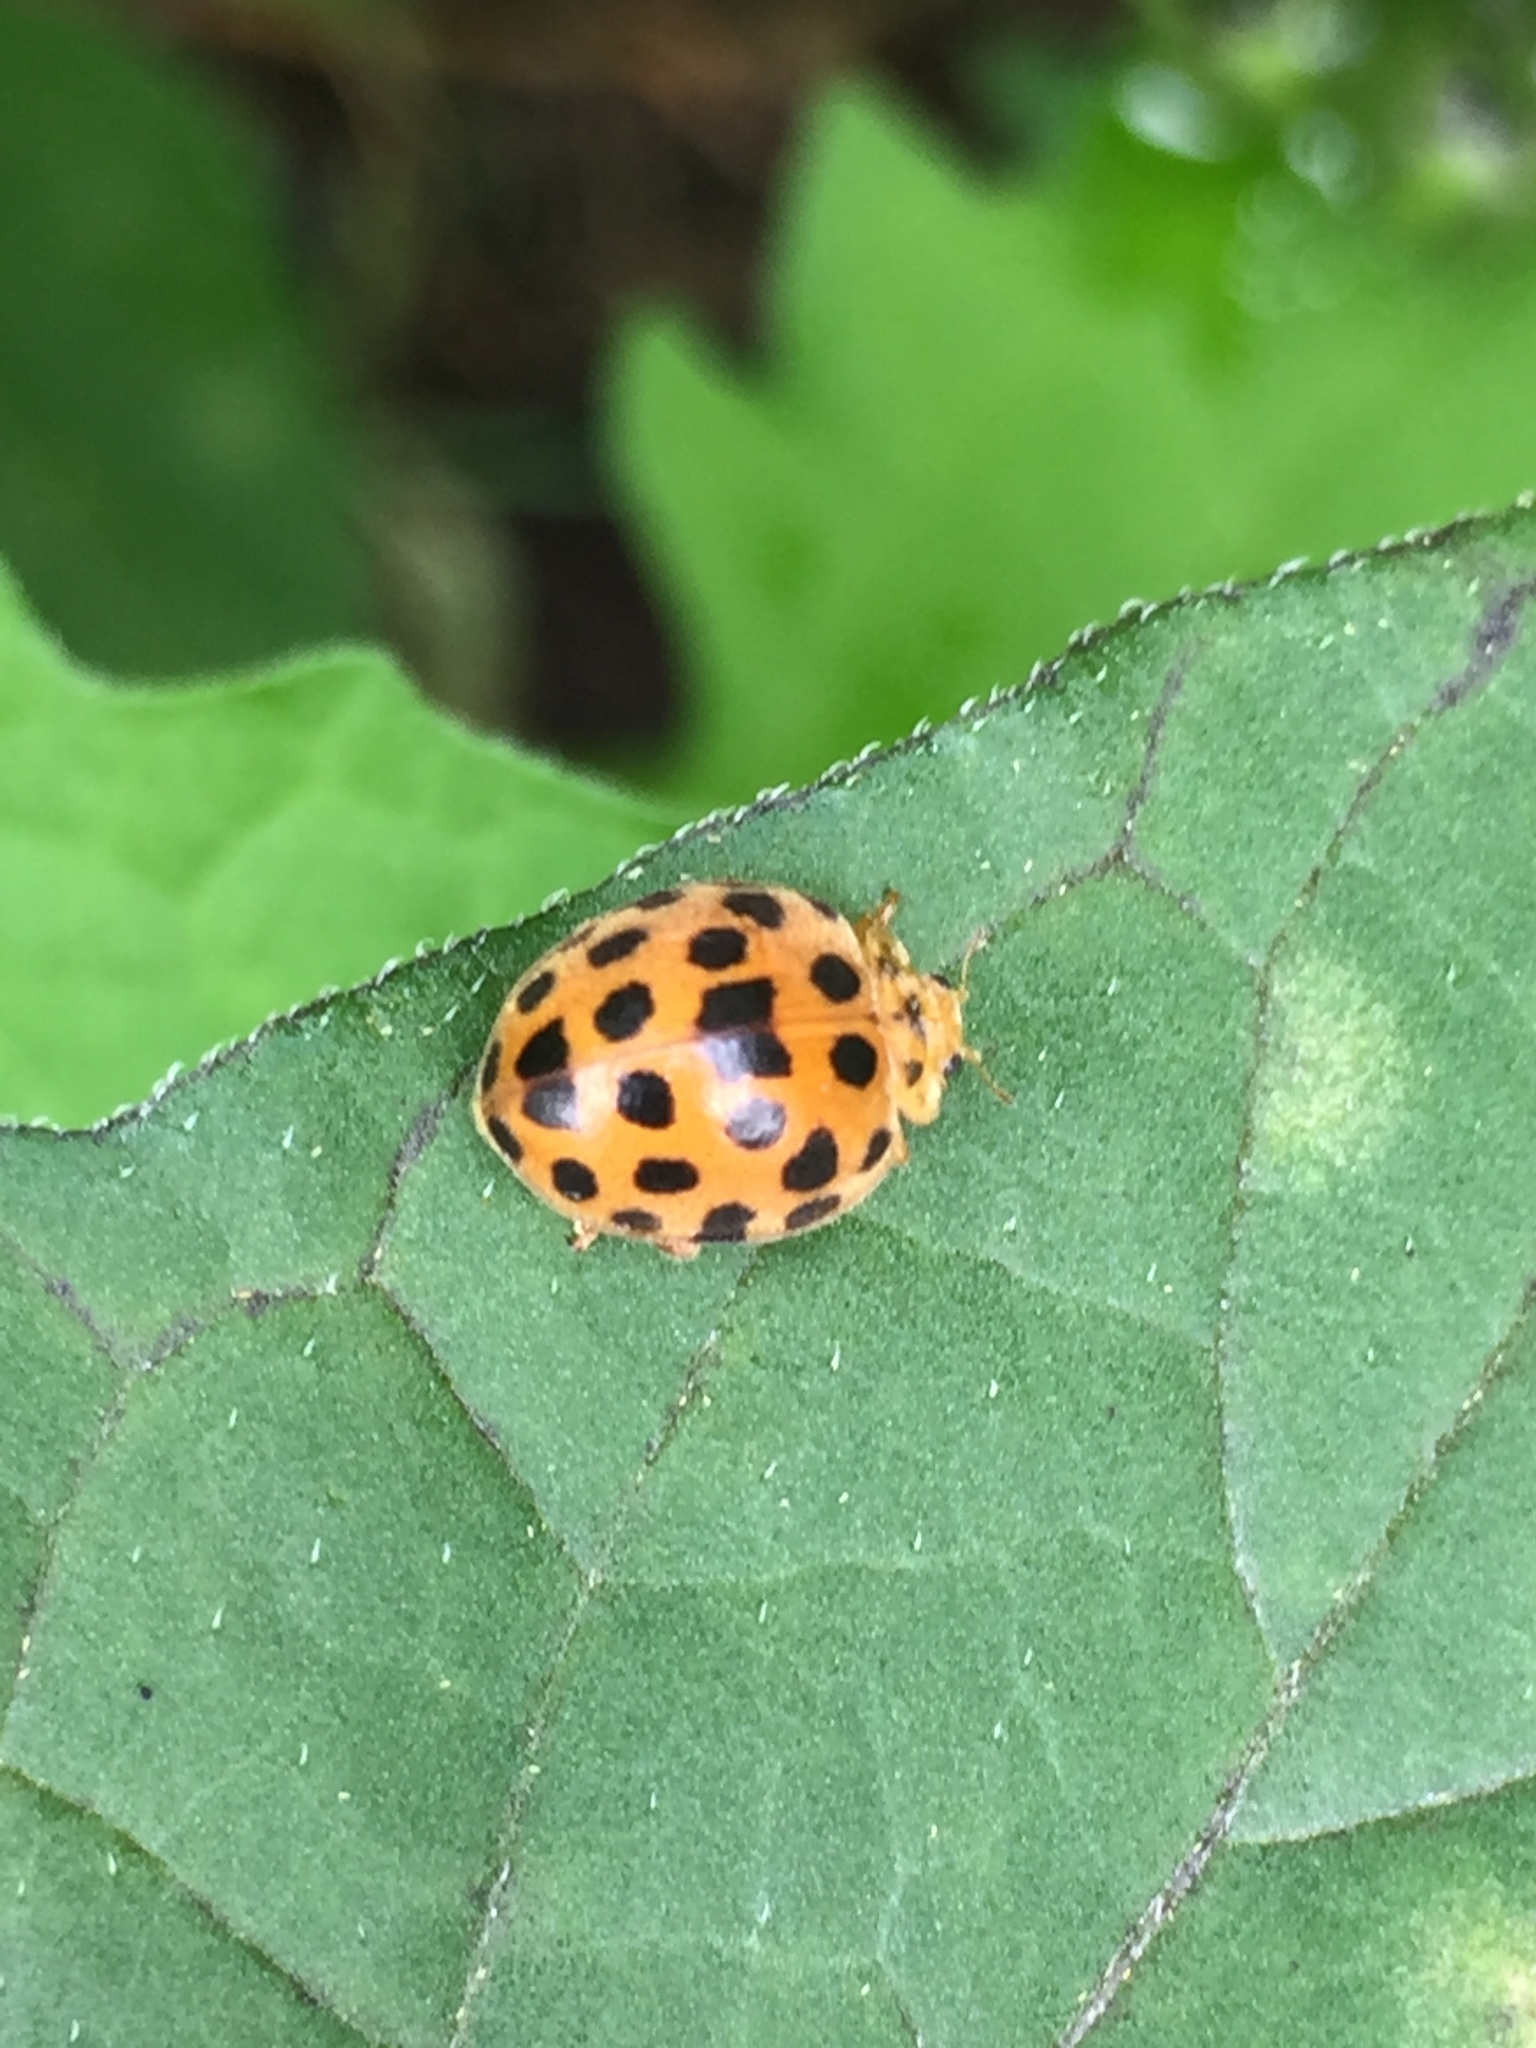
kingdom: Animalia
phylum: Arthropoda
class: Insecta
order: Coleoptera
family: Coccinellidae
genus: Henosepilachna
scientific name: Henosepilachna vigintioctopunctata
